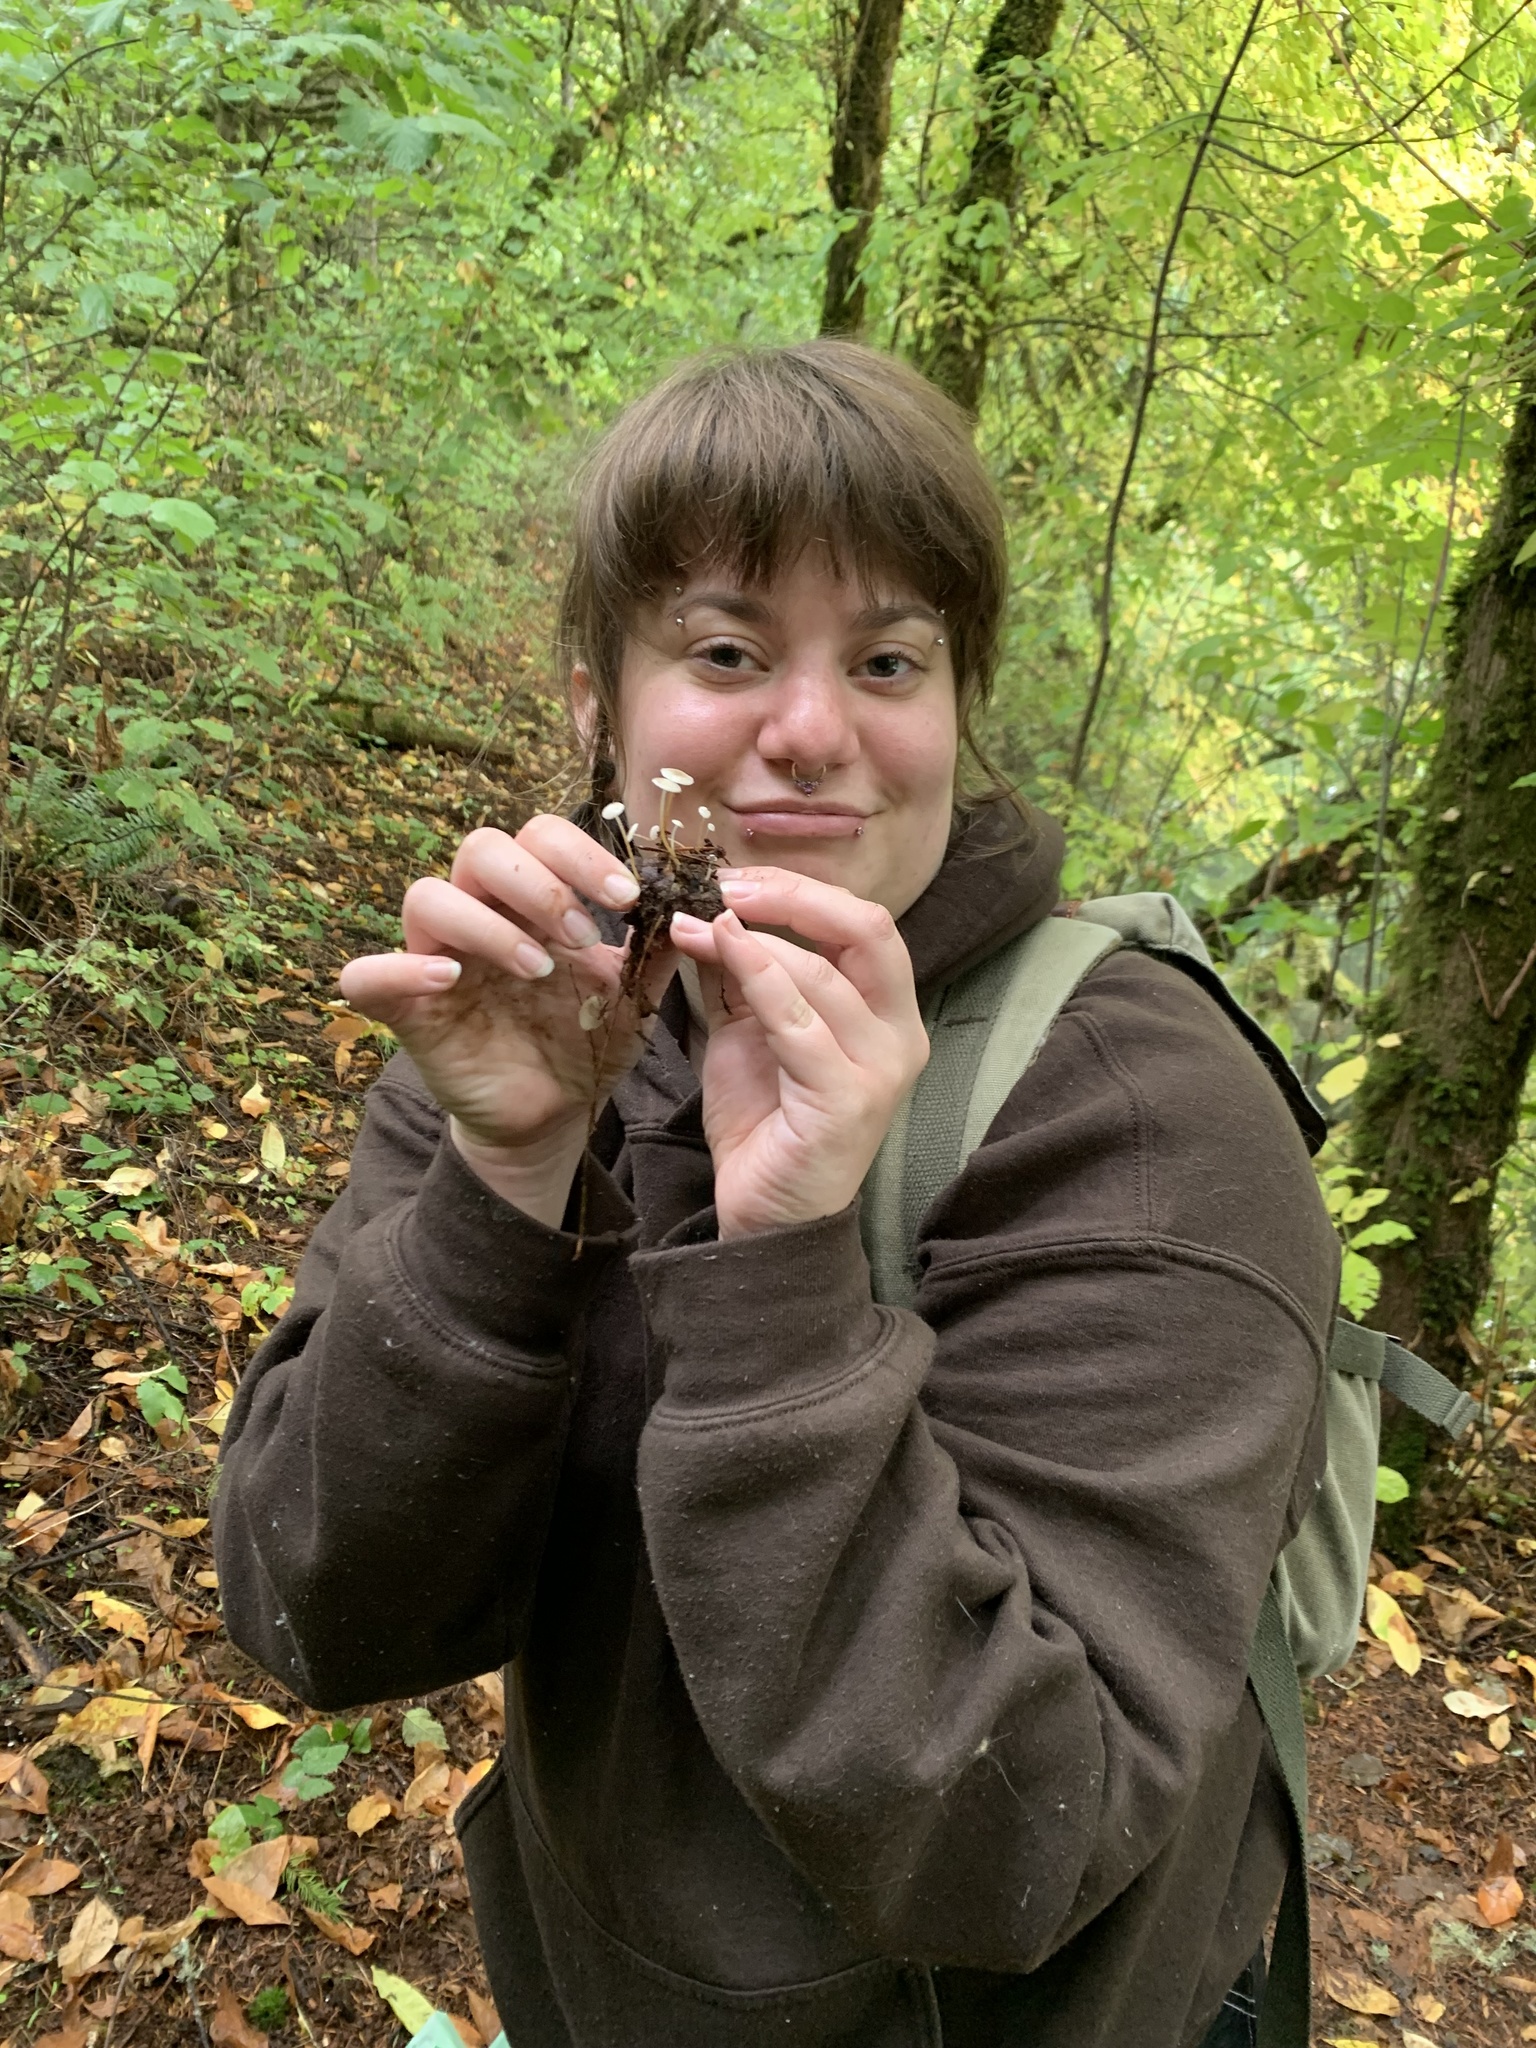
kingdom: Fungi
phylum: Basidiomycota
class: Agaricomycetes
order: Agaricales
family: Physalacriaceae
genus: Strobilurus
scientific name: Strobilurus trullisatus
